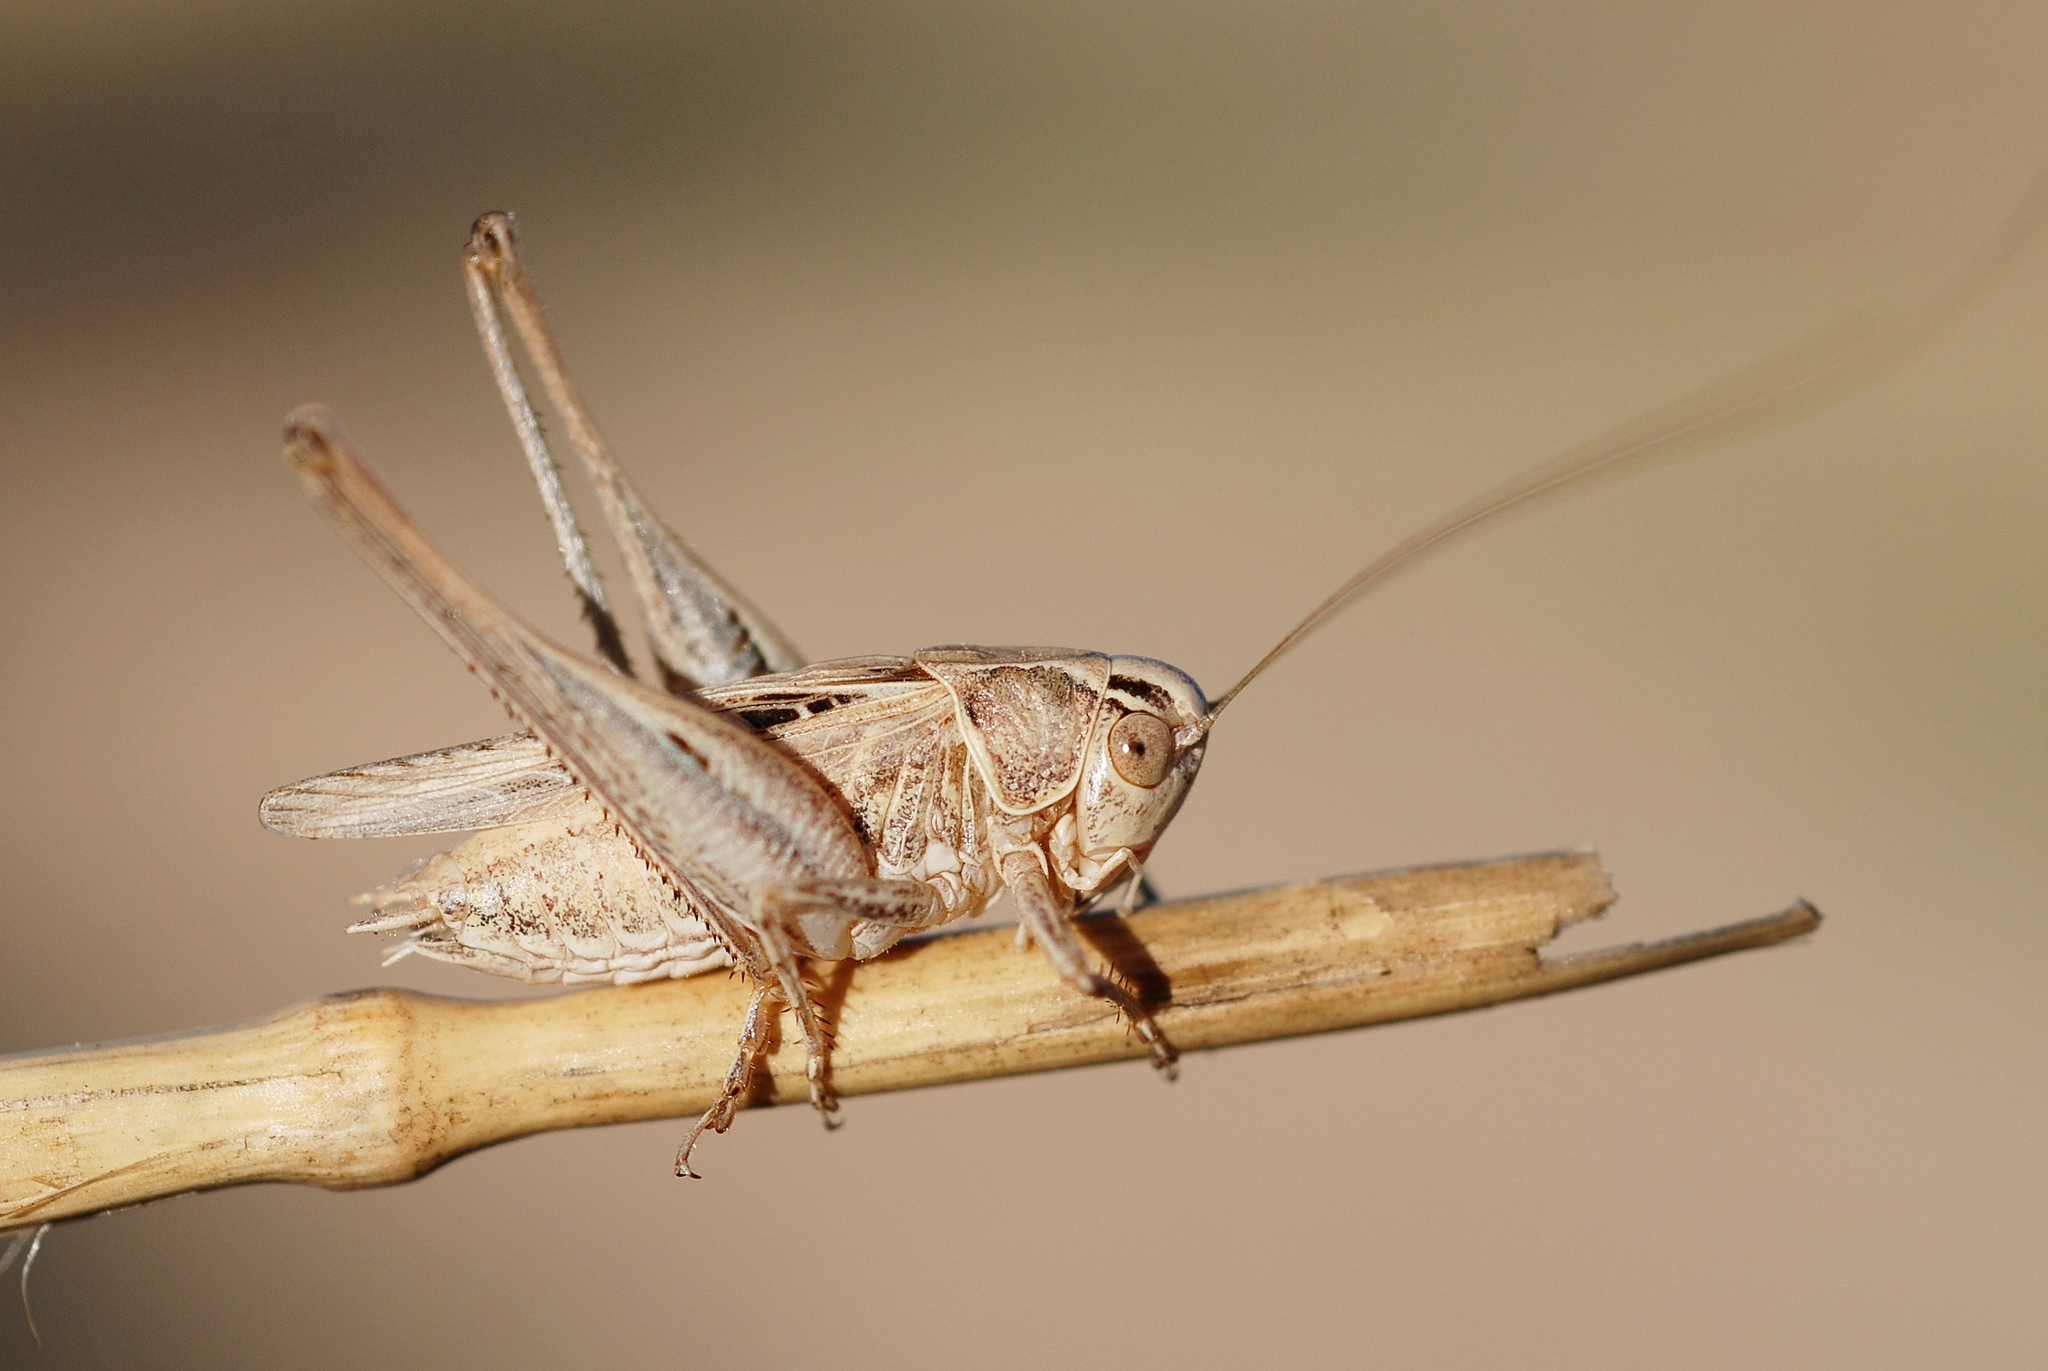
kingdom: Animalia
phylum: Arthropoda
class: Insecta
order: Orthoptera
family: Tettigoniidae
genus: Tessellana
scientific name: Tessellana tessellata
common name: Grasshopper
